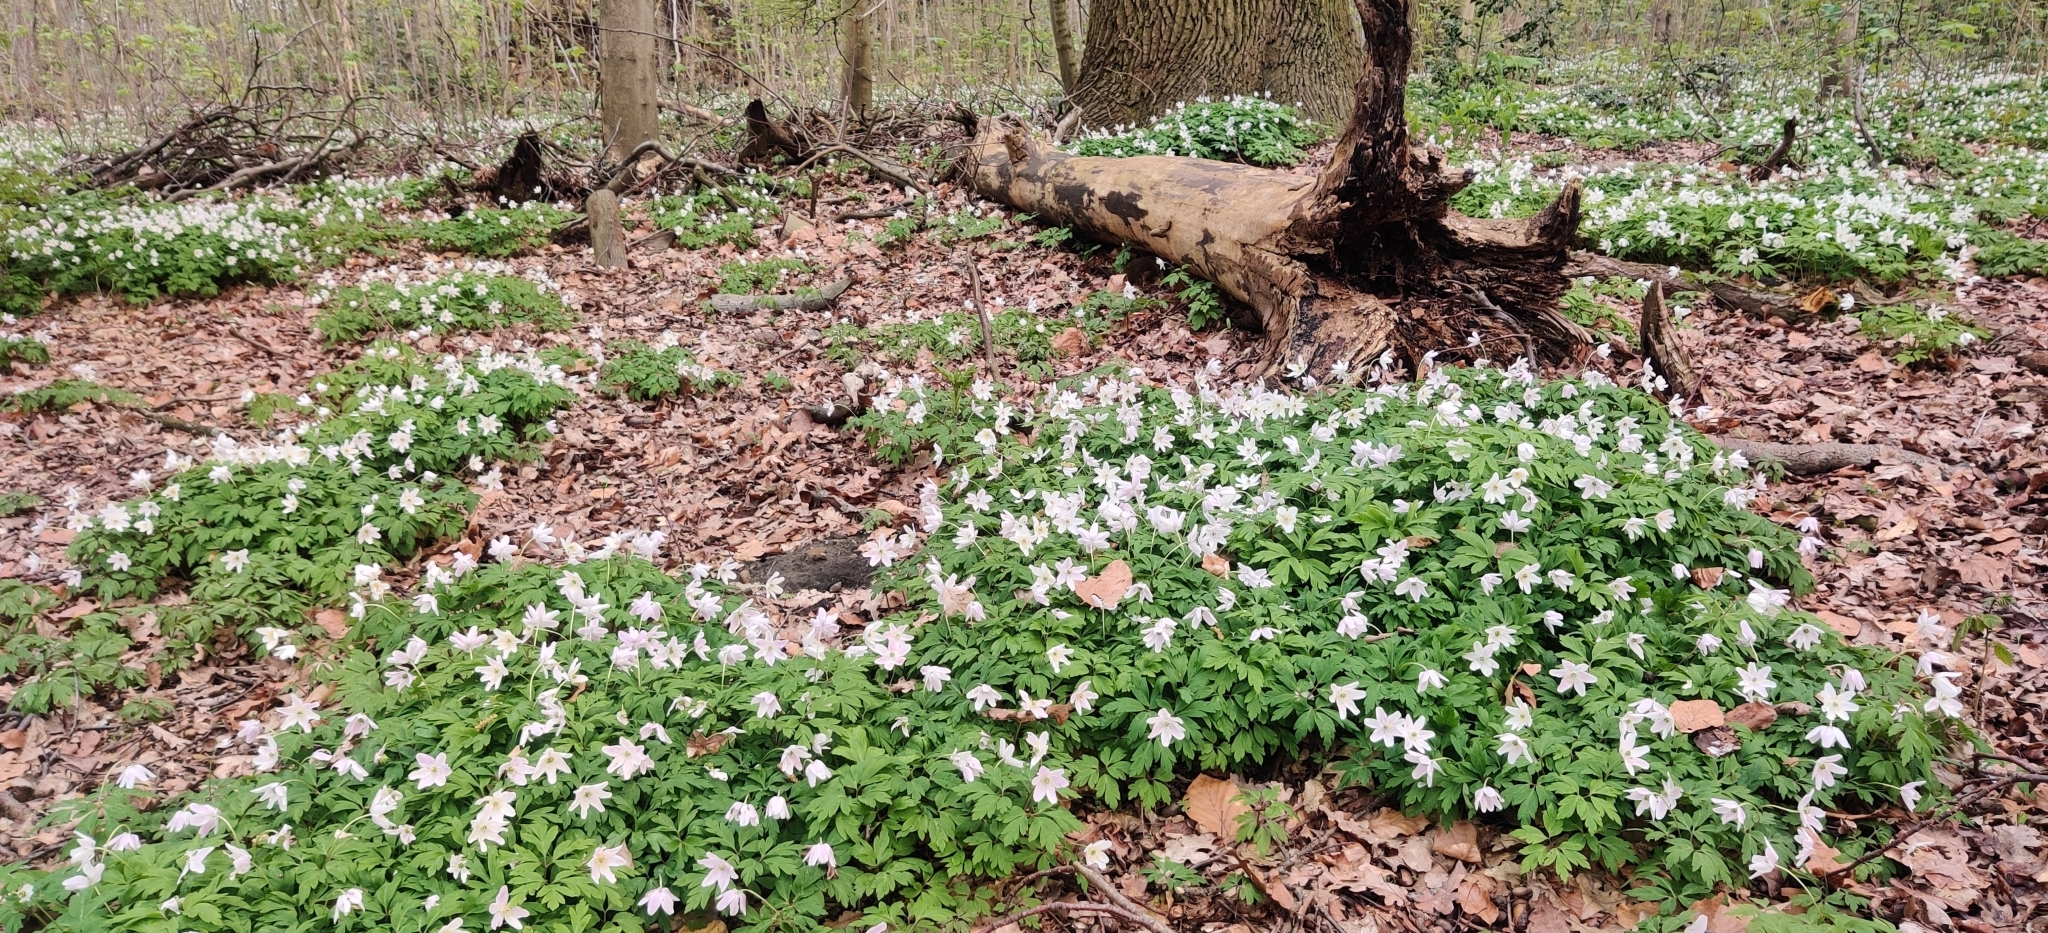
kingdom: Plantae
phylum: Tracheophyta
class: Magnoliopsida
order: Ranunculales
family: Ranunculaceae
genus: Anemone
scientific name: Anemone nemorosa
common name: Wood anemone
